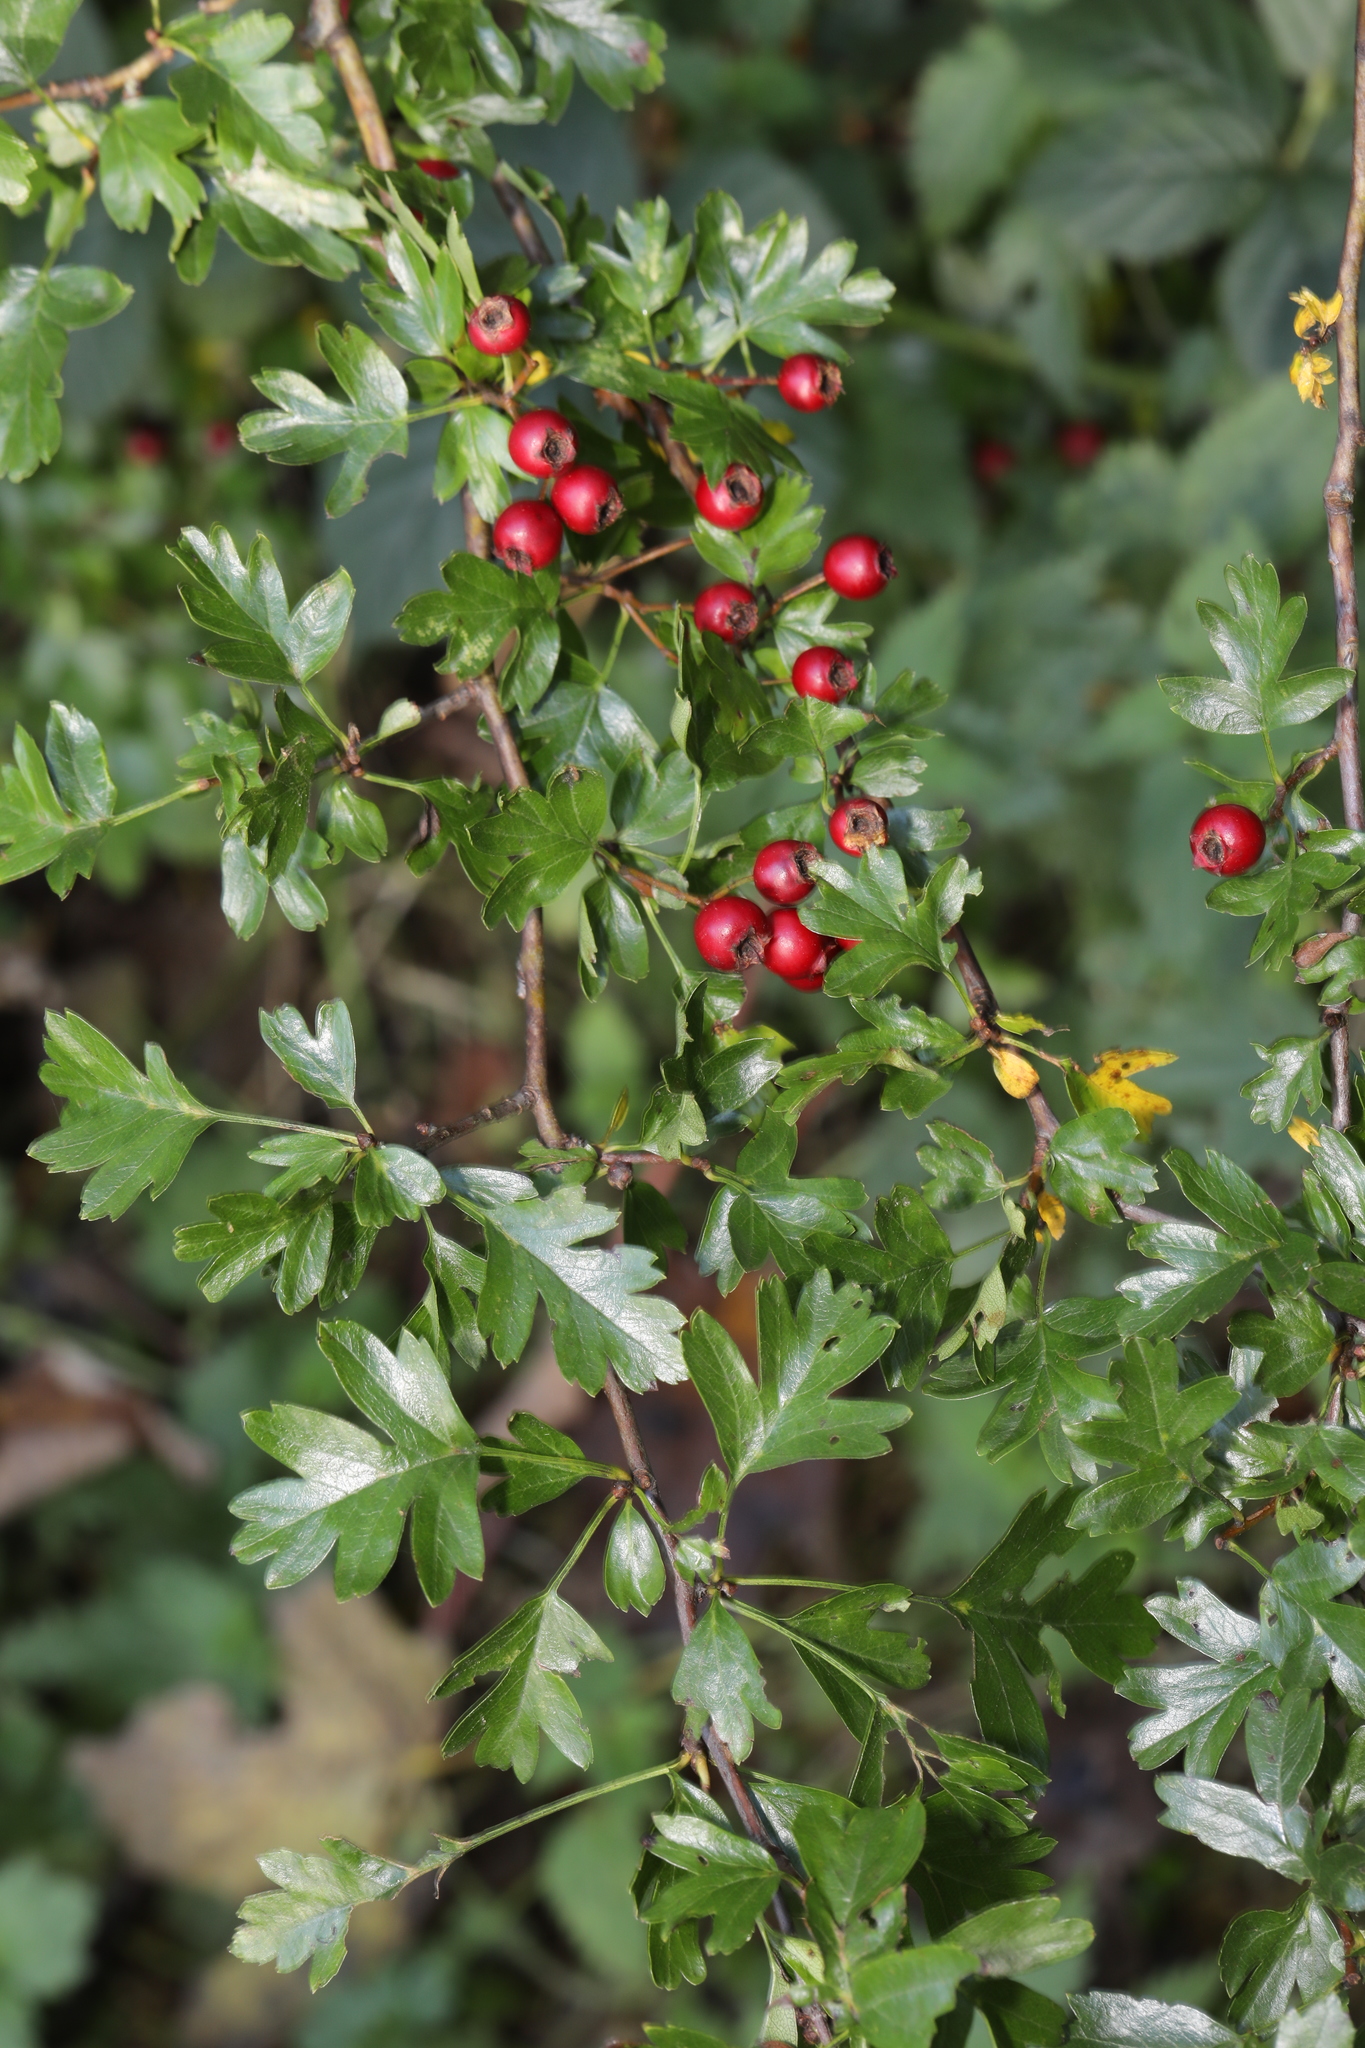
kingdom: Plantae
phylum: Tracheophyta
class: Magnoliopsida
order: Rosales
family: Rosaceae
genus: Crataegus
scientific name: Crataegus monogyna
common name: Hawthorn
